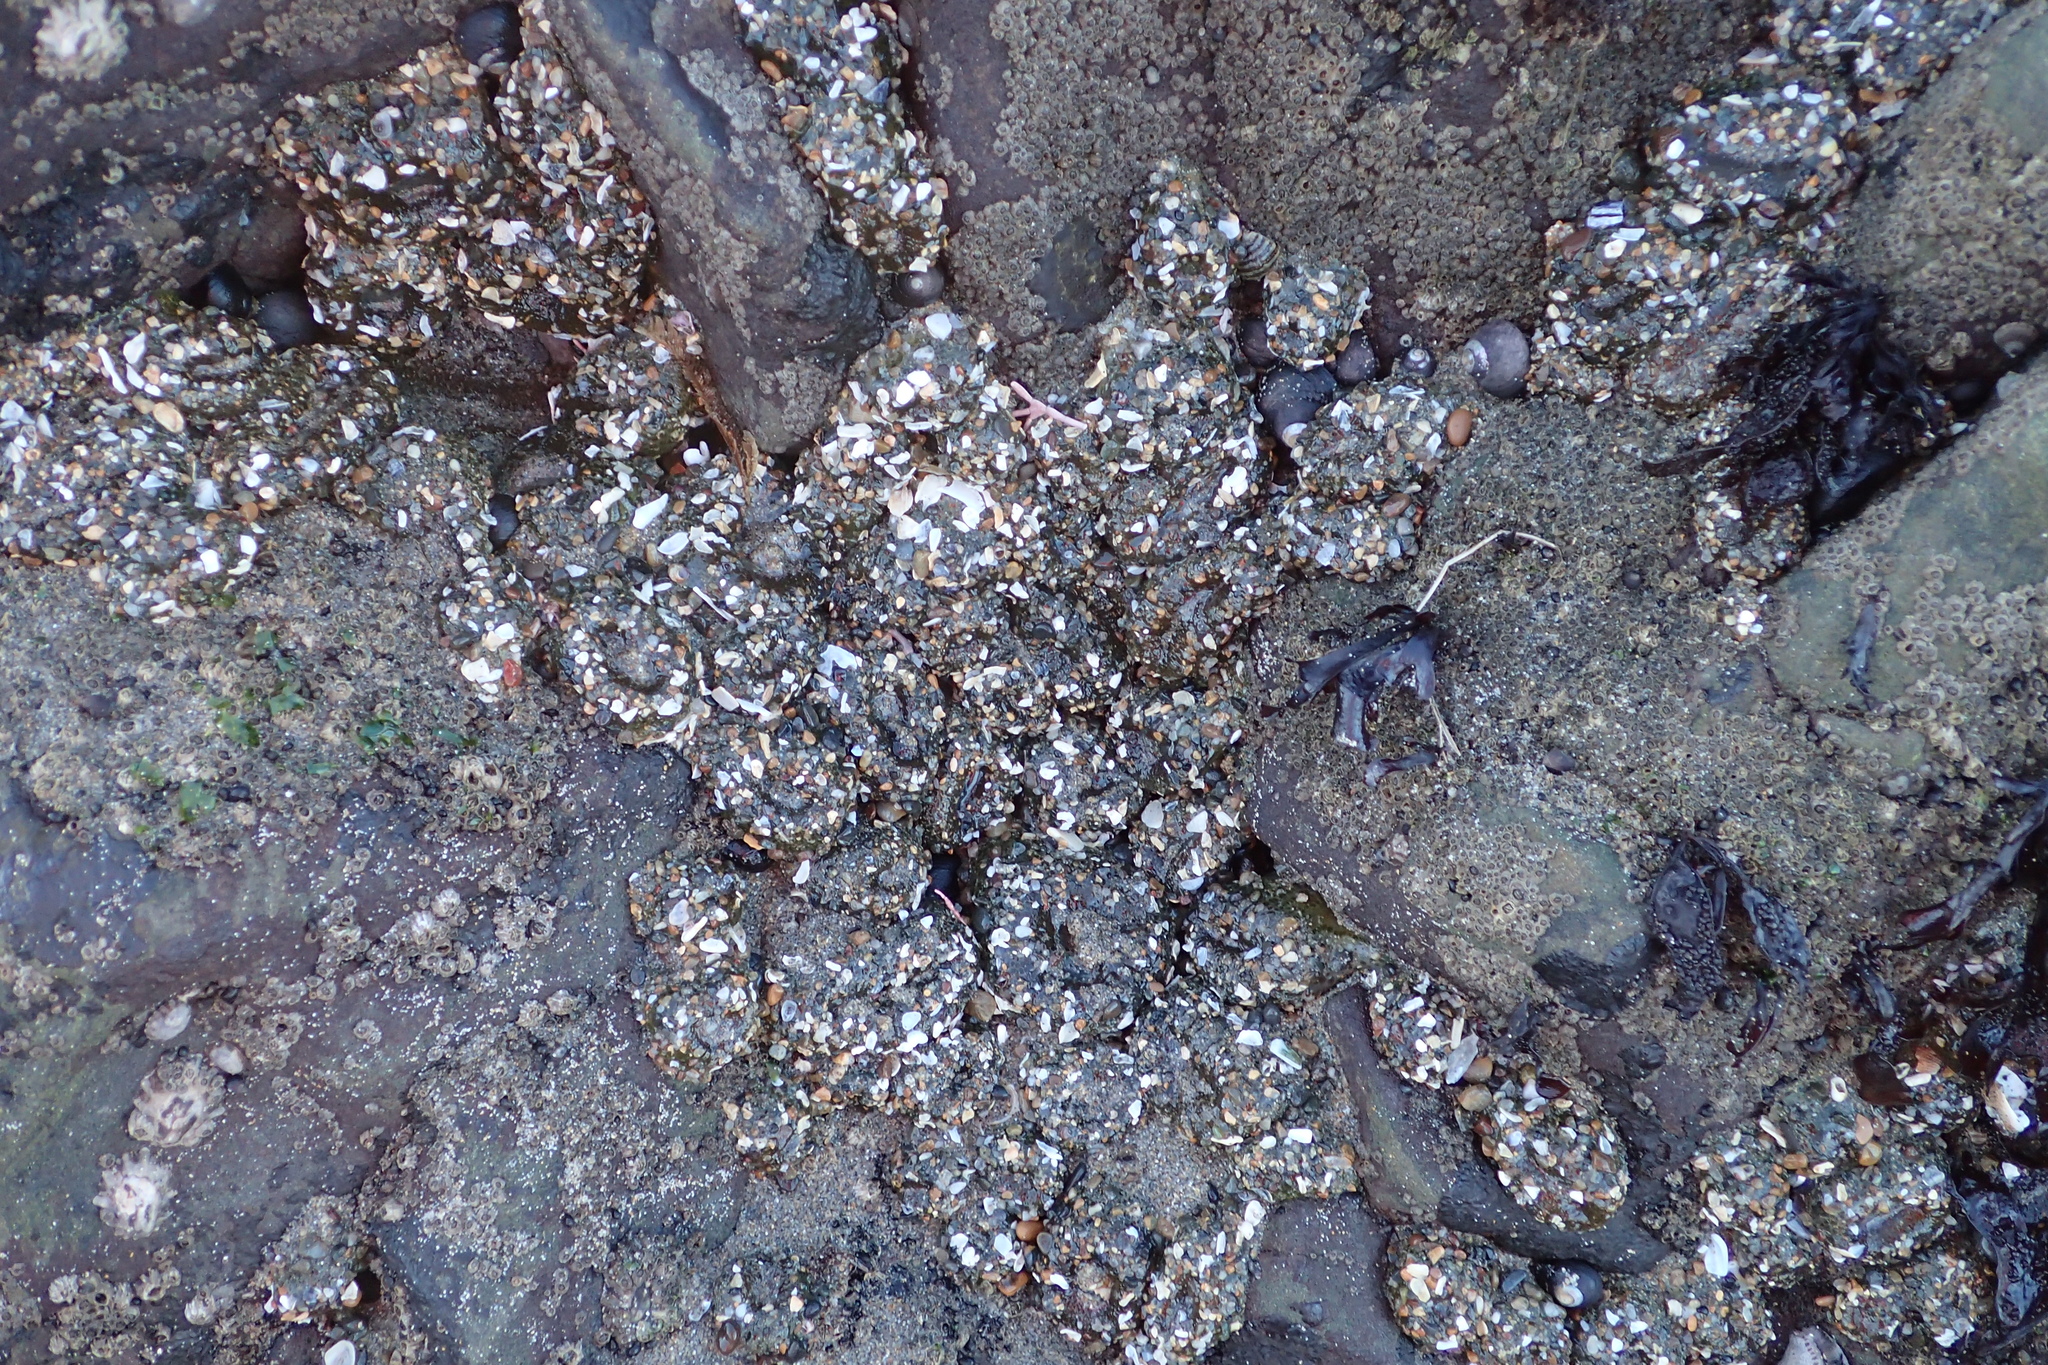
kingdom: Animalia
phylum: Cnidaria
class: Anthozoa
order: Actiniaria
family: Actiniidae
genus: Anthopleura
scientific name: Anthopleura elegantissima
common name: Clonal anemone
